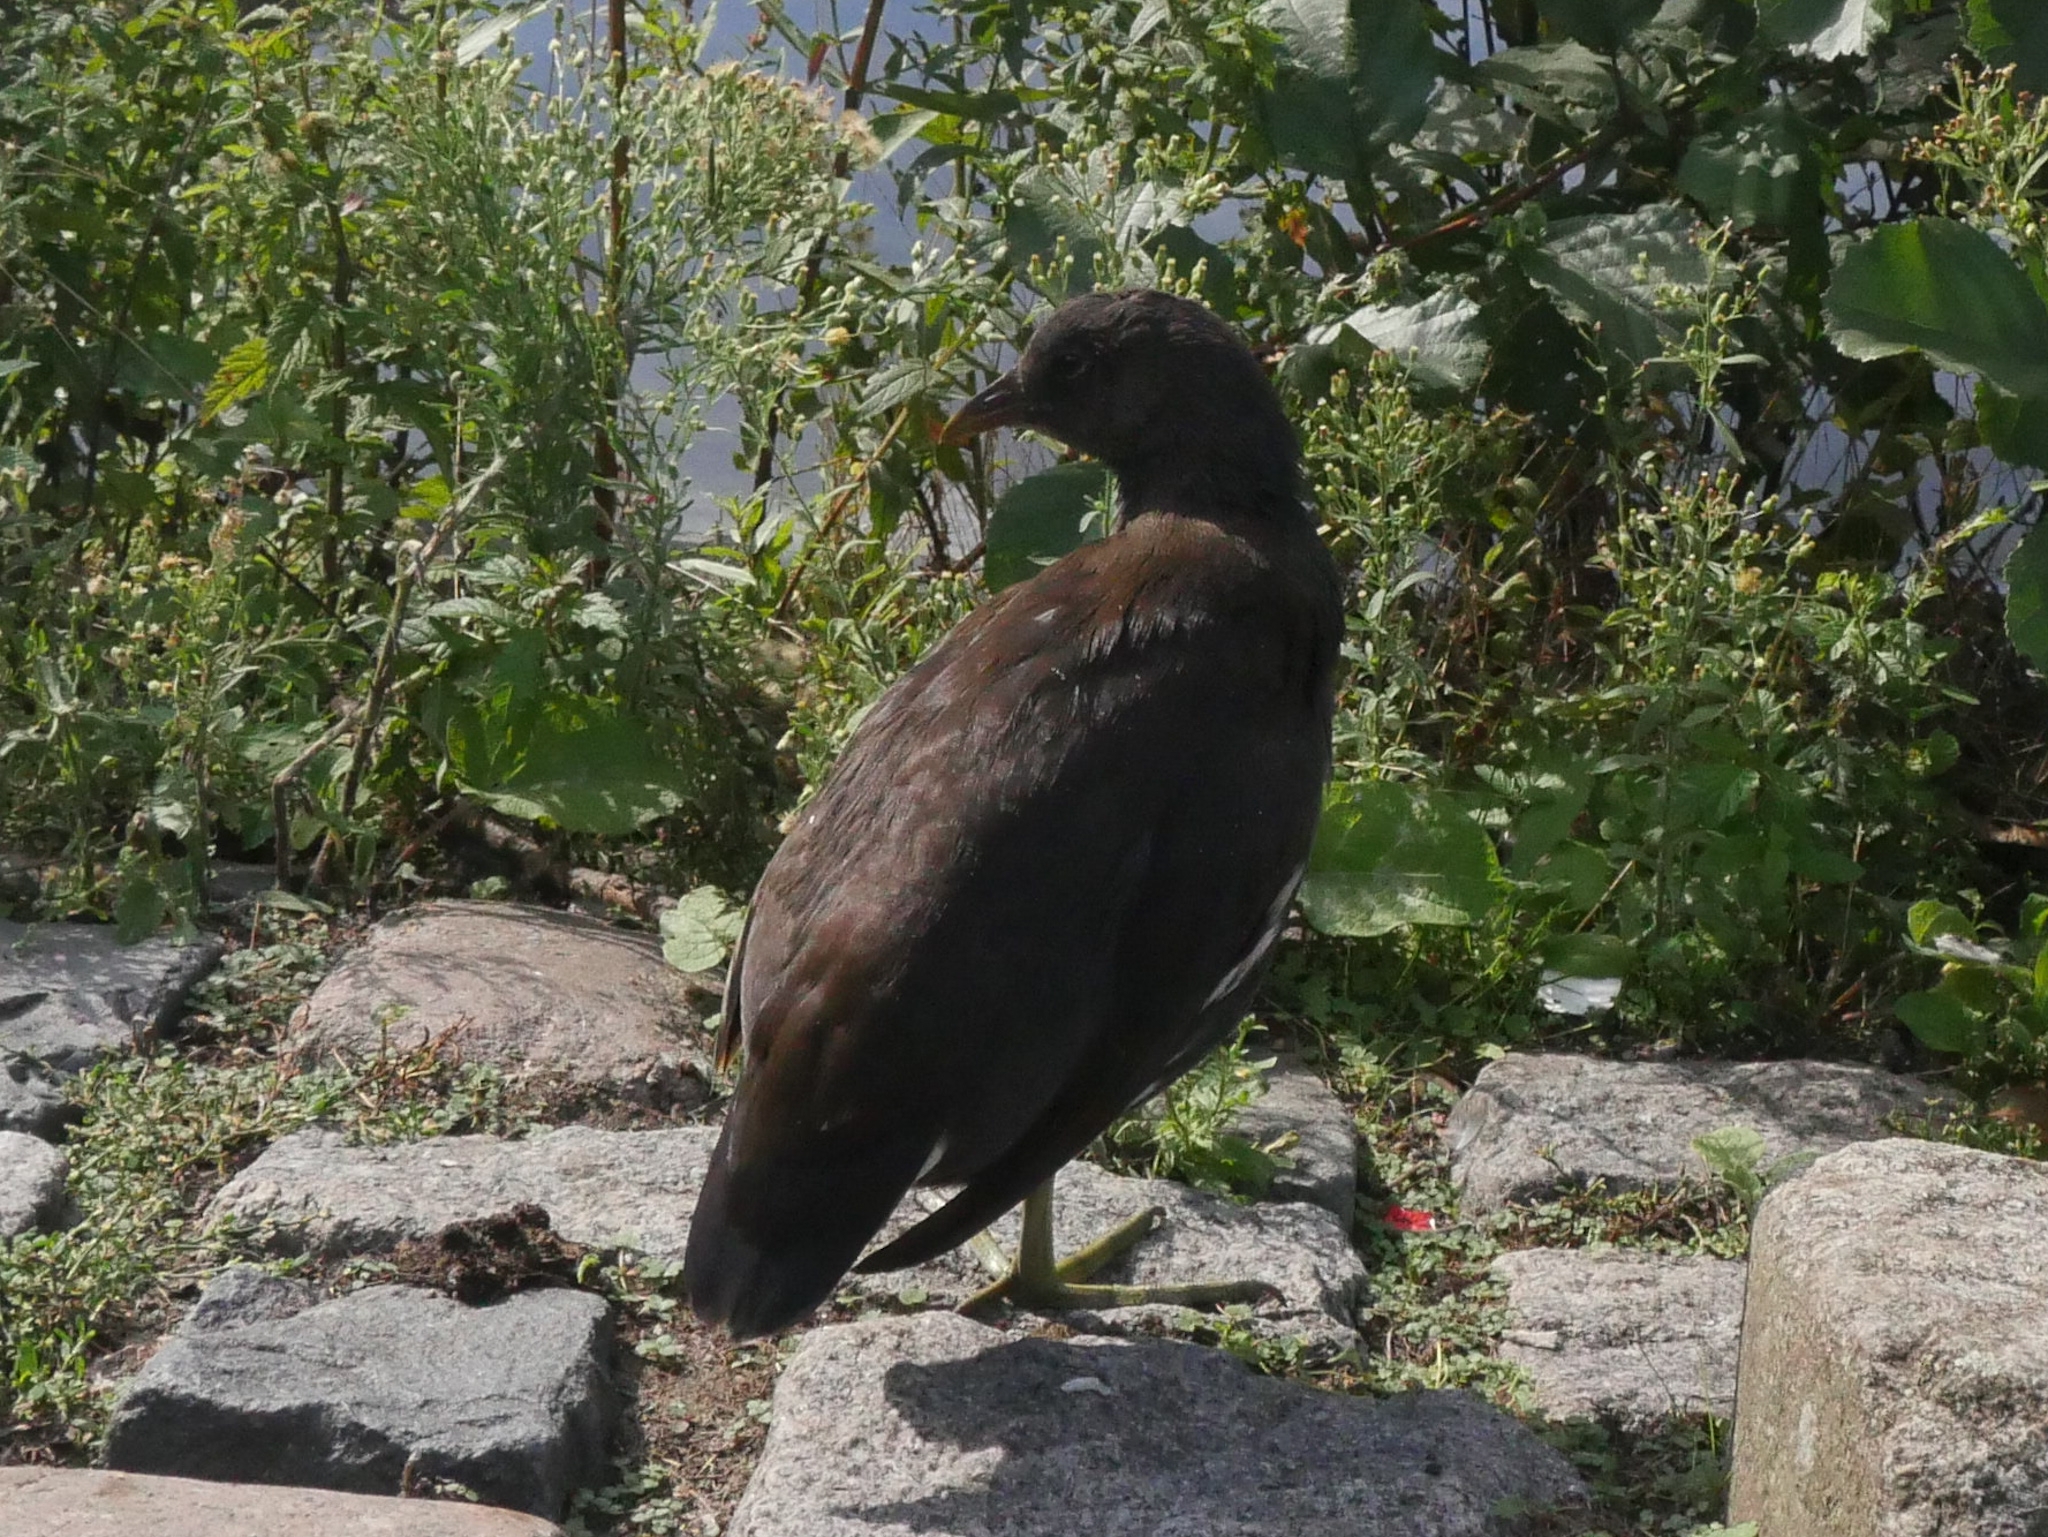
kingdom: Animalia
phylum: Chordata
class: Aves
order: Gruiformes
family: Rallidae
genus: Gallinula
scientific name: Gallinula chloropus
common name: Common moorhen
